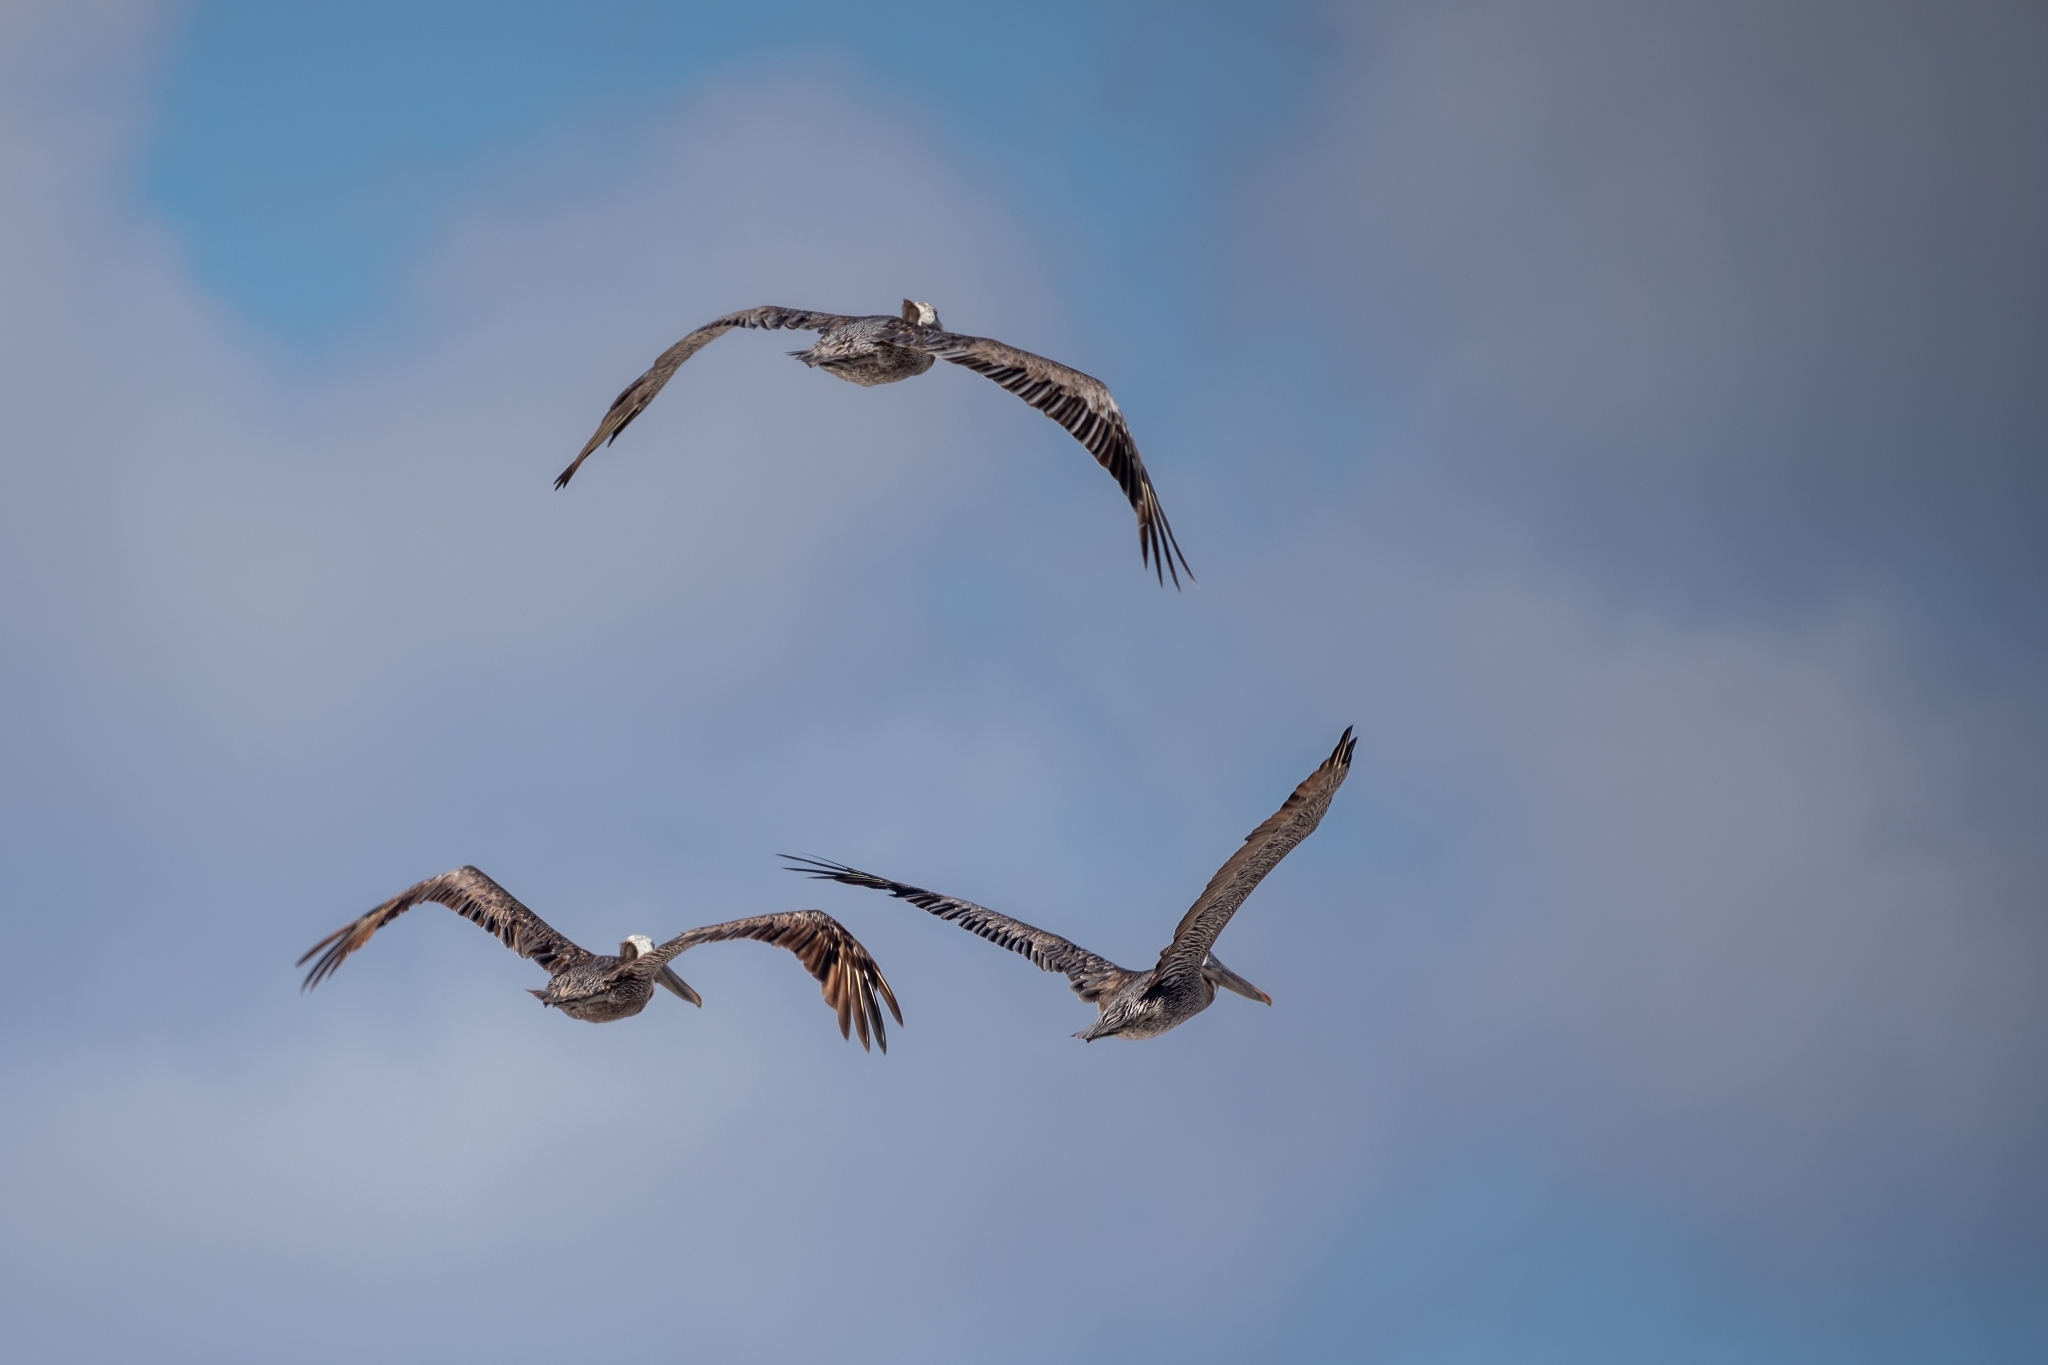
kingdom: Animalia
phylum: Chordata
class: Aves
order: Pelecaniformes
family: Pelecanidae
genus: Pelecanus
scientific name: Pelecanus occidentalis
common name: Brown pelican
